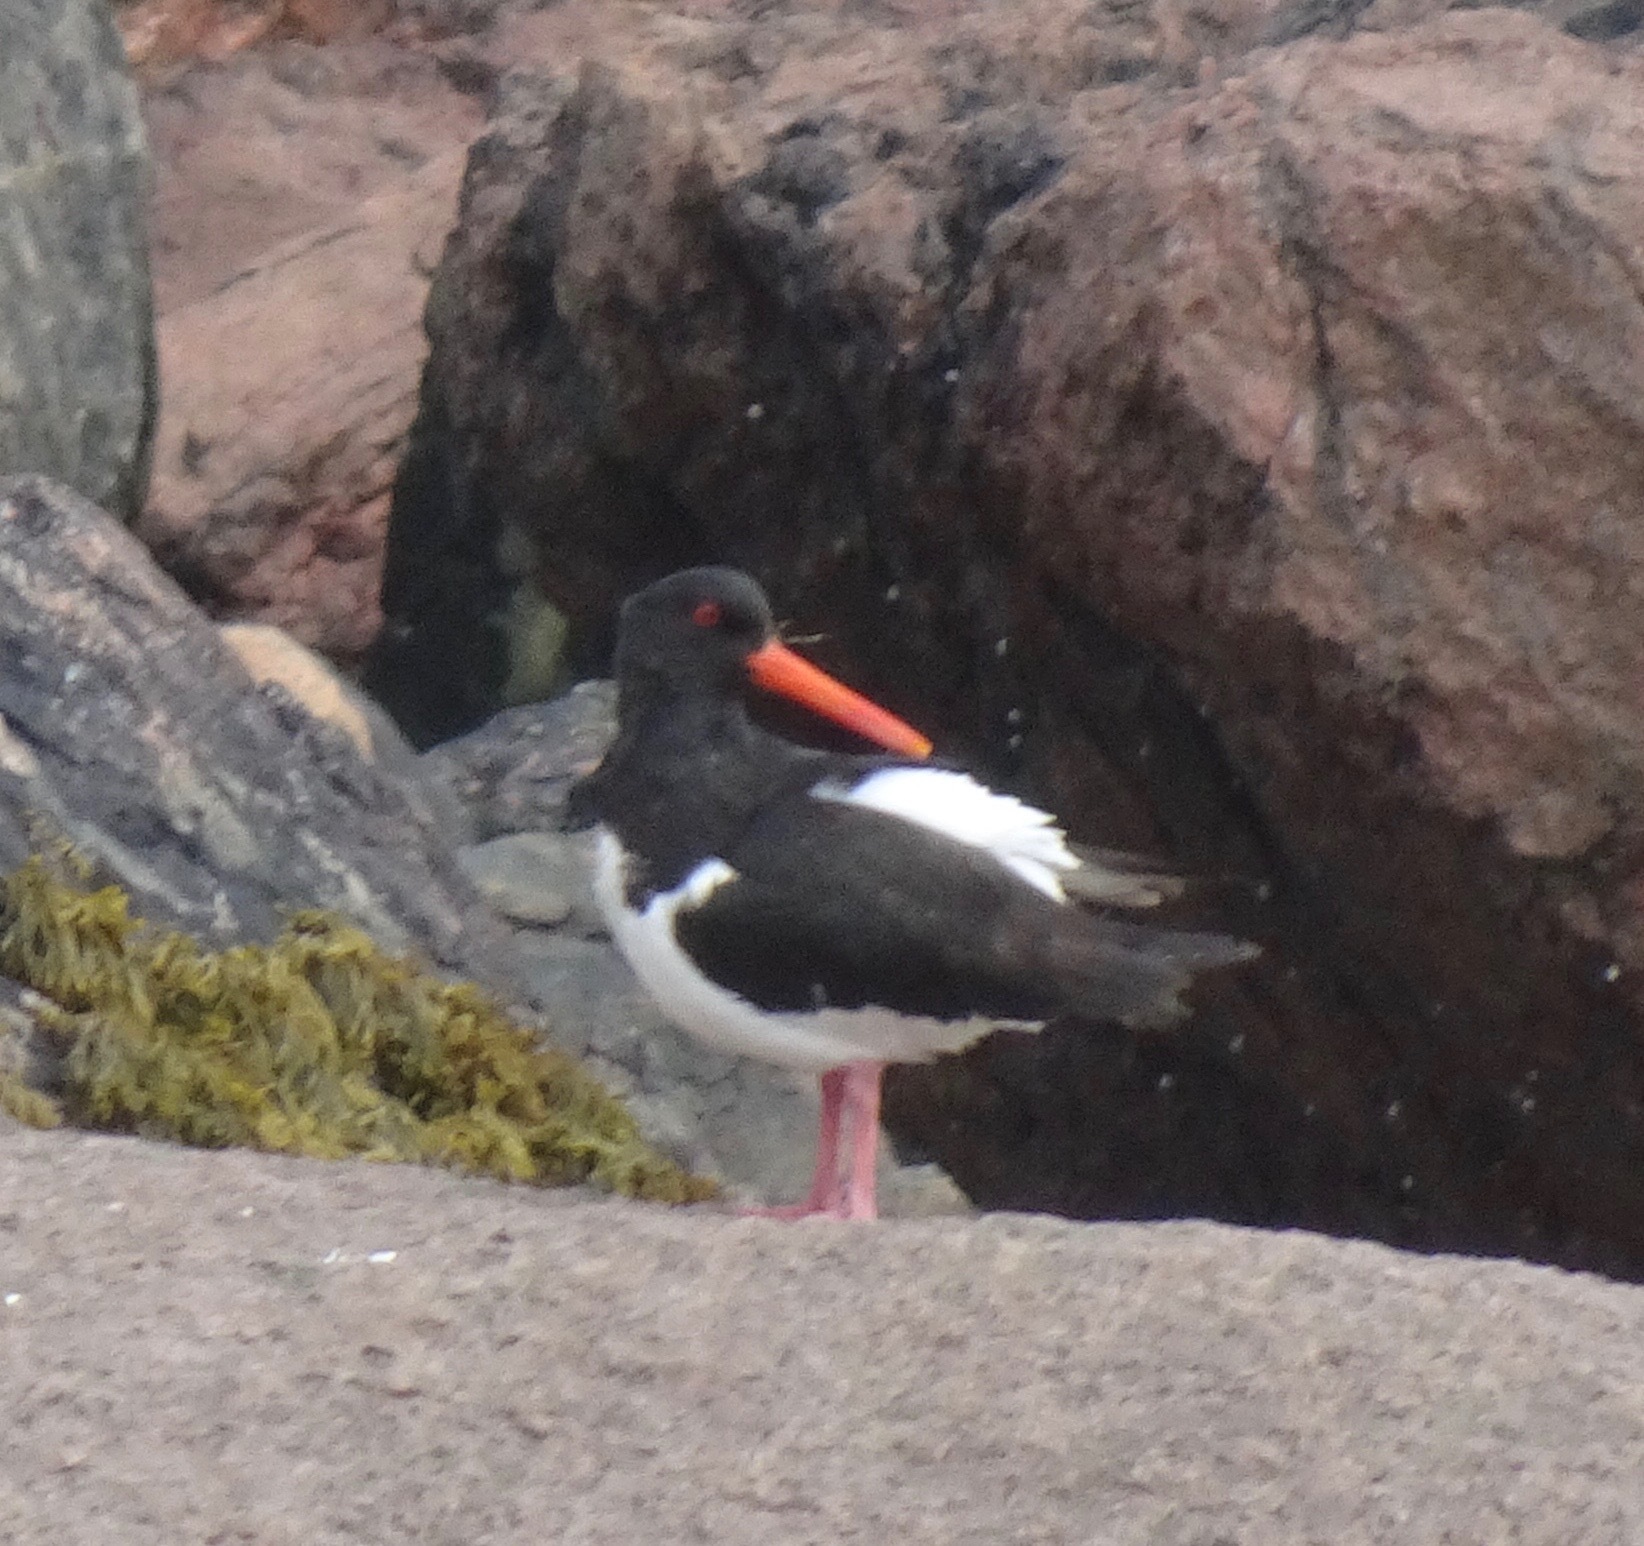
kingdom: Animalia
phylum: Chordata
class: Aves
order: Charadriiformes
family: Haematopodidae
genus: Haematopus
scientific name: Haematopus ostralegus
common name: Eurasian oystercatcher
